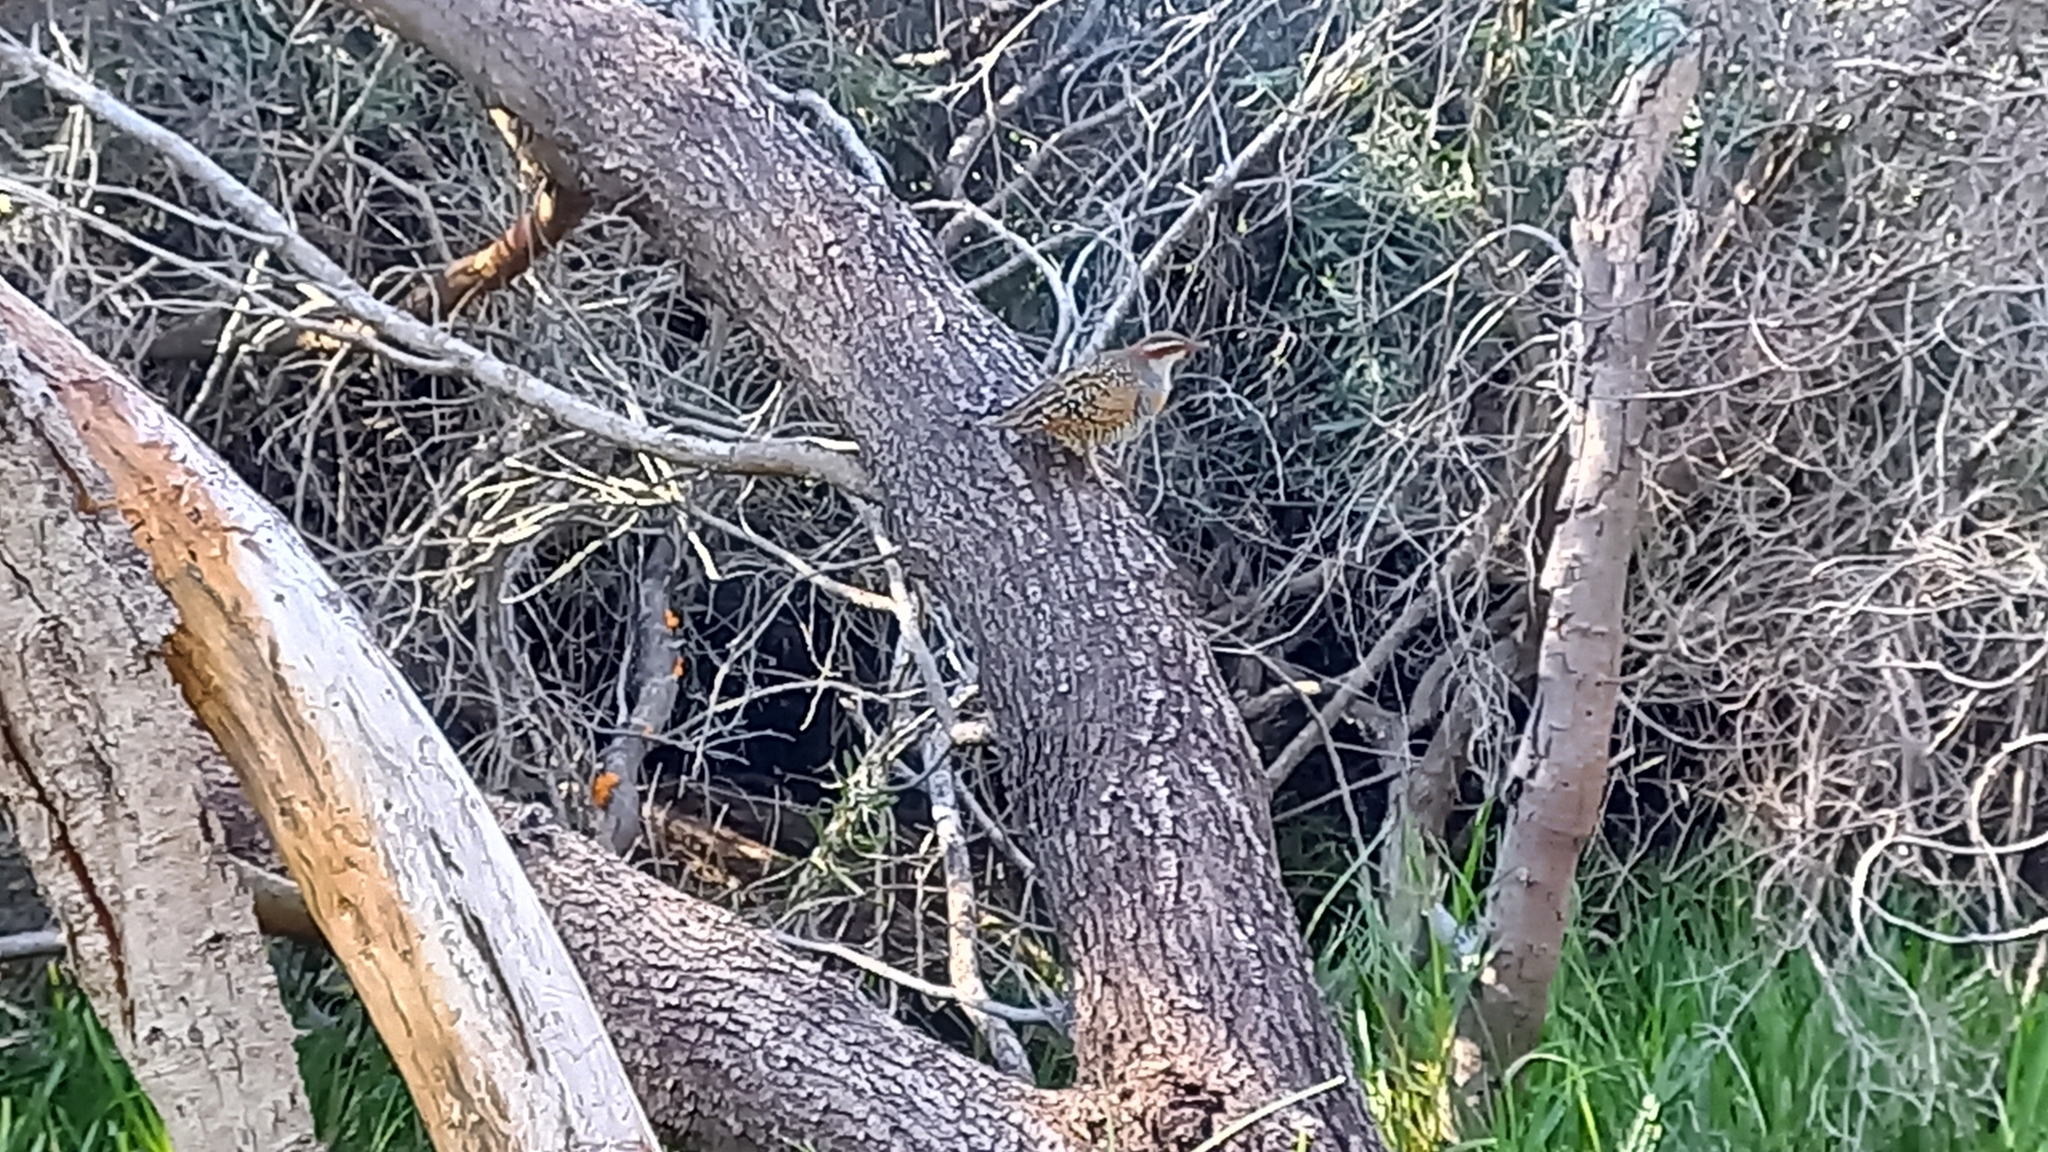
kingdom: Animalia
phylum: Chordata
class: Aves
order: Gruiformes
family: Rallidae
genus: Gallirallus
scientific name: Gallirallus philippensis
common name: Buff-banded rail
